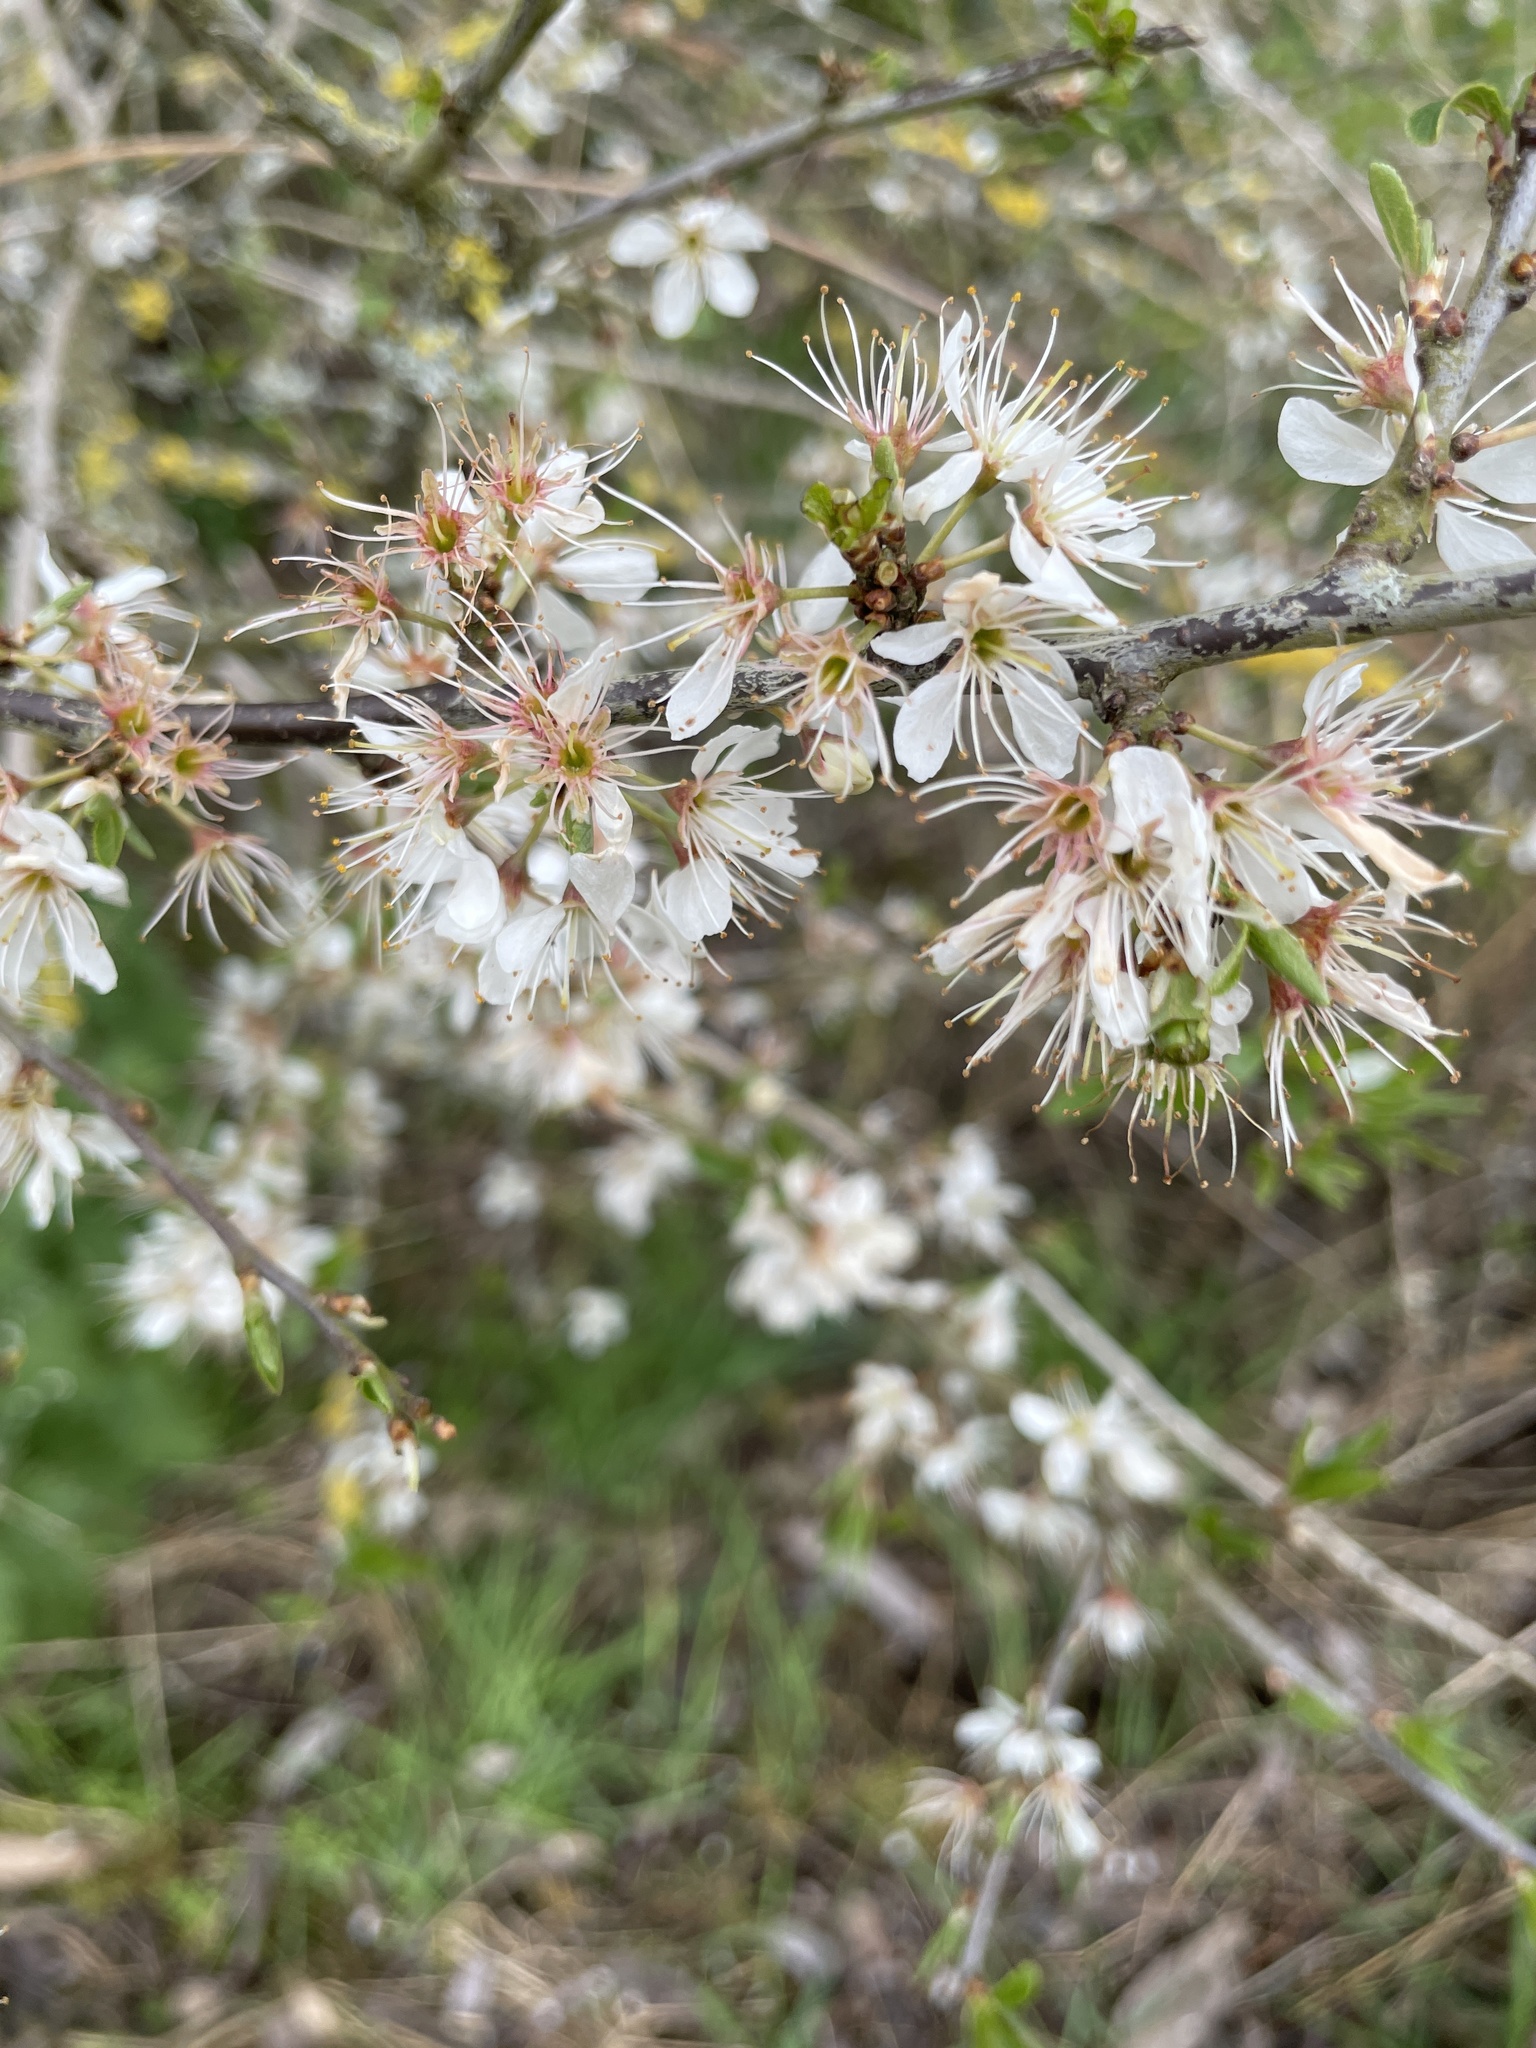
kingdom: Plantae
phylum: Tracheophyta
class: Magnoliopsida
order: Rosales
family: Rosaceae
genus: Prunus
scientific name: Prunus spinosa
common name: Blackthorn
